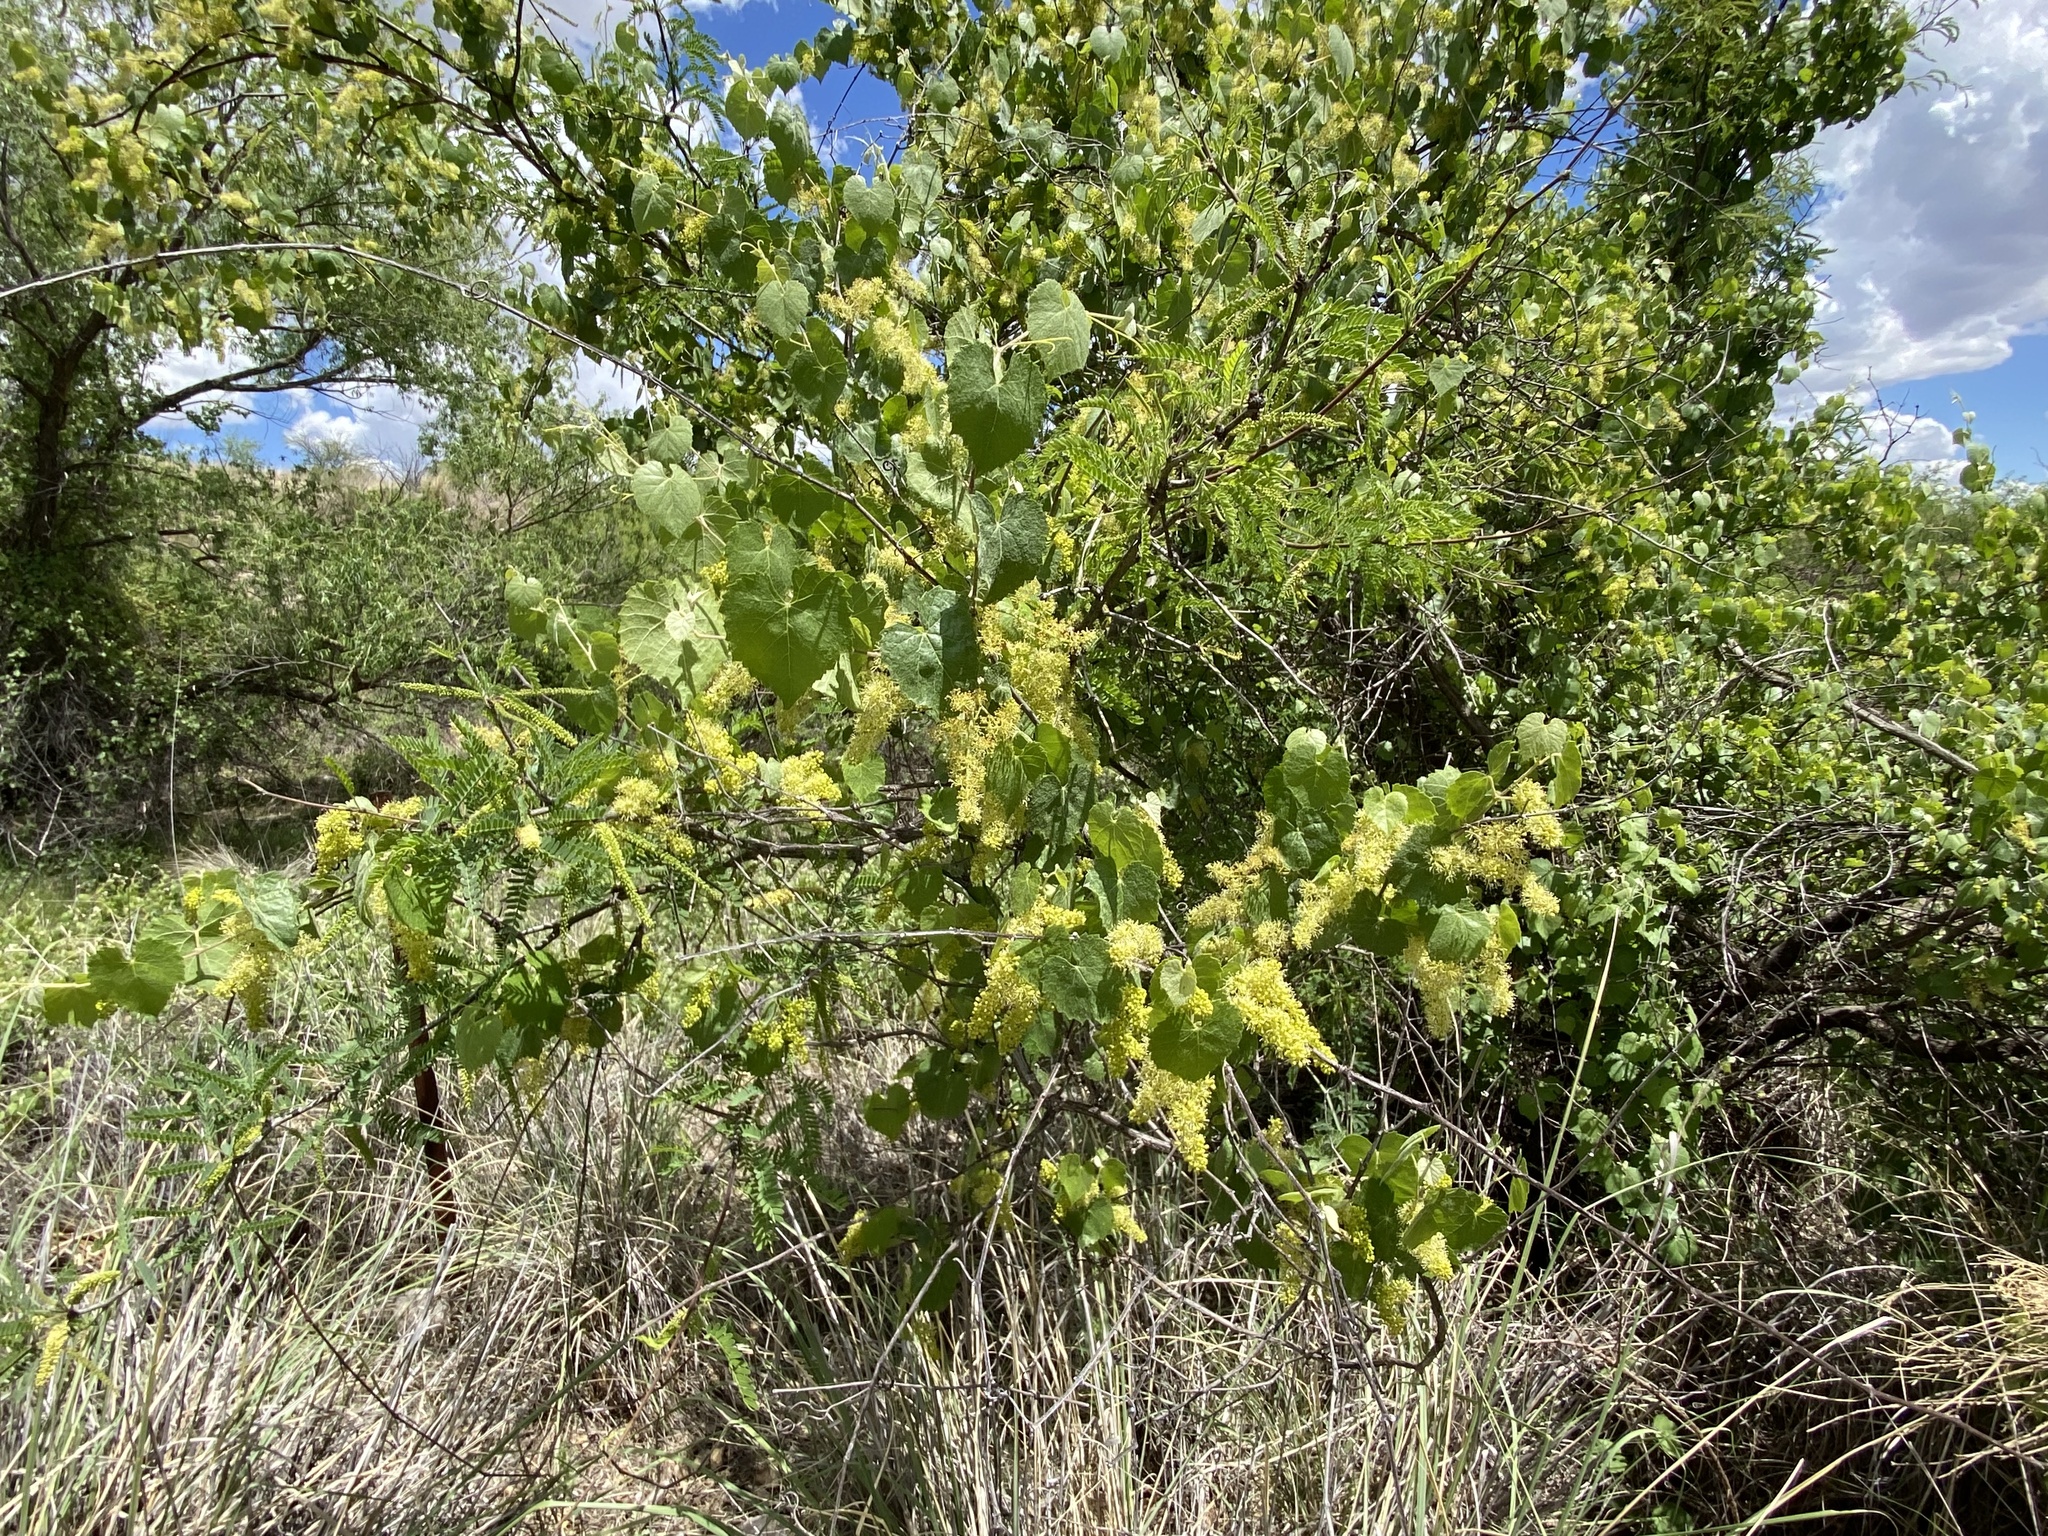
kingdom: Plantae
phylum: Tracheophyta
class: Magnoliopsida
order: Vitales
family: Vitaceae
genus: Vitis
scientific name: Vitis arizonica
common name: Canyon grape
